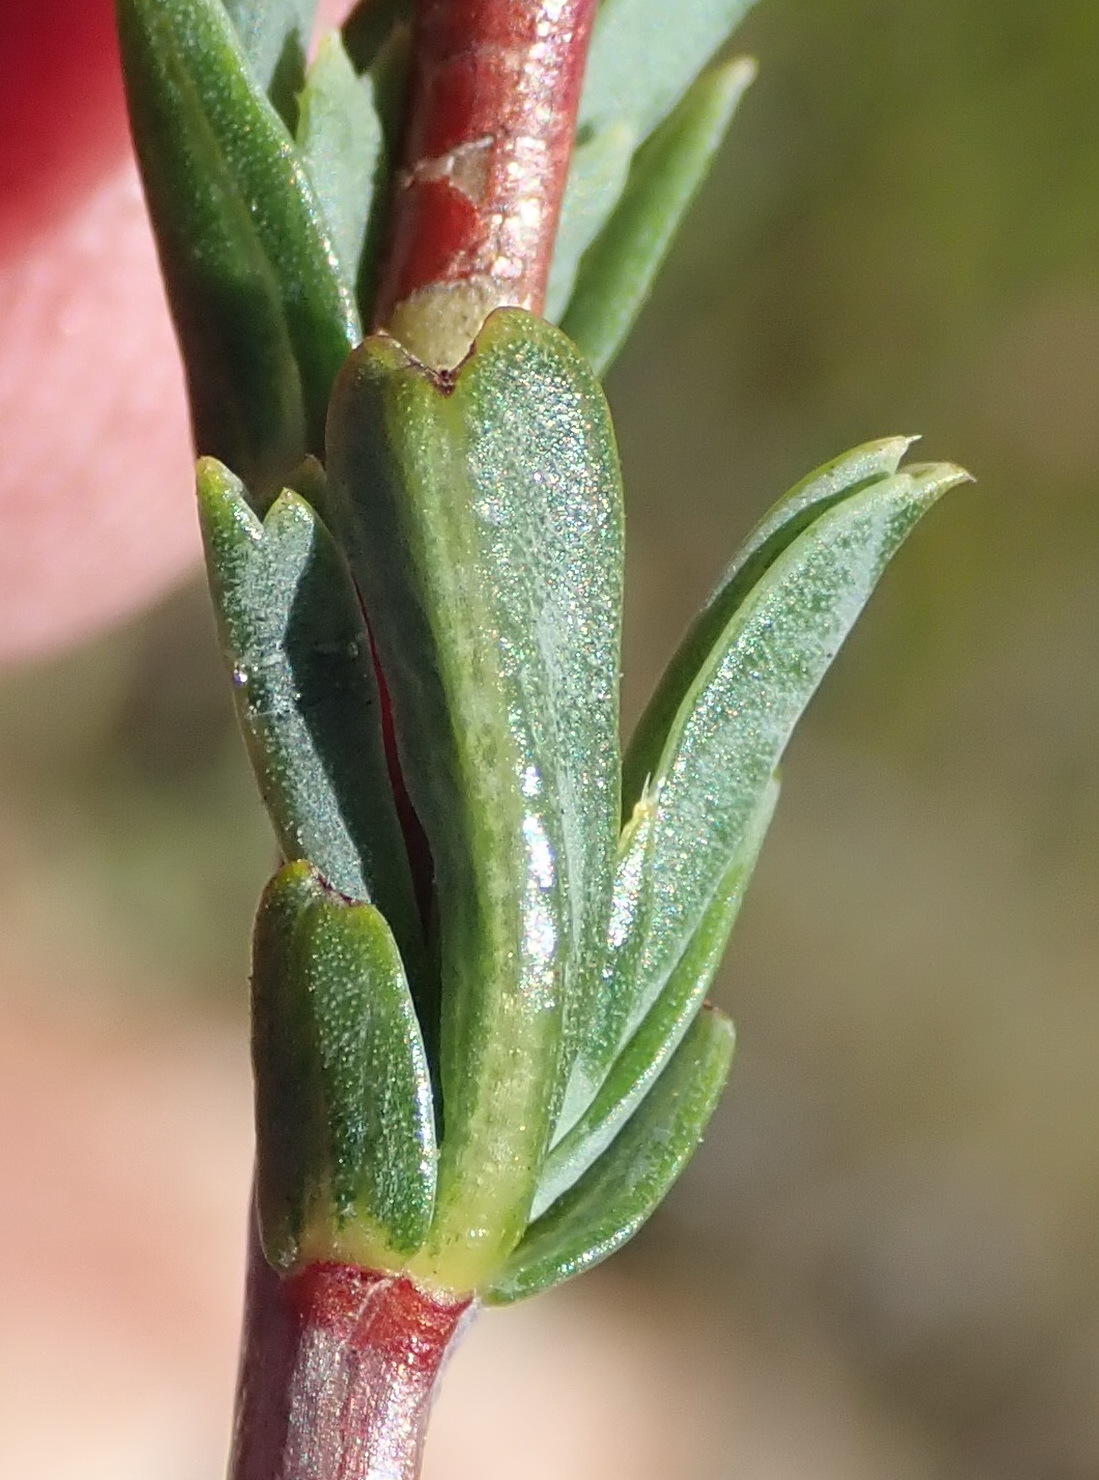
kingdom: Plantae
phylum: Tracheophyta
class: Magnoliopsida
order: Malvales
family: Malvaceae
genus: Hermannia
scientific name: Hermannia
